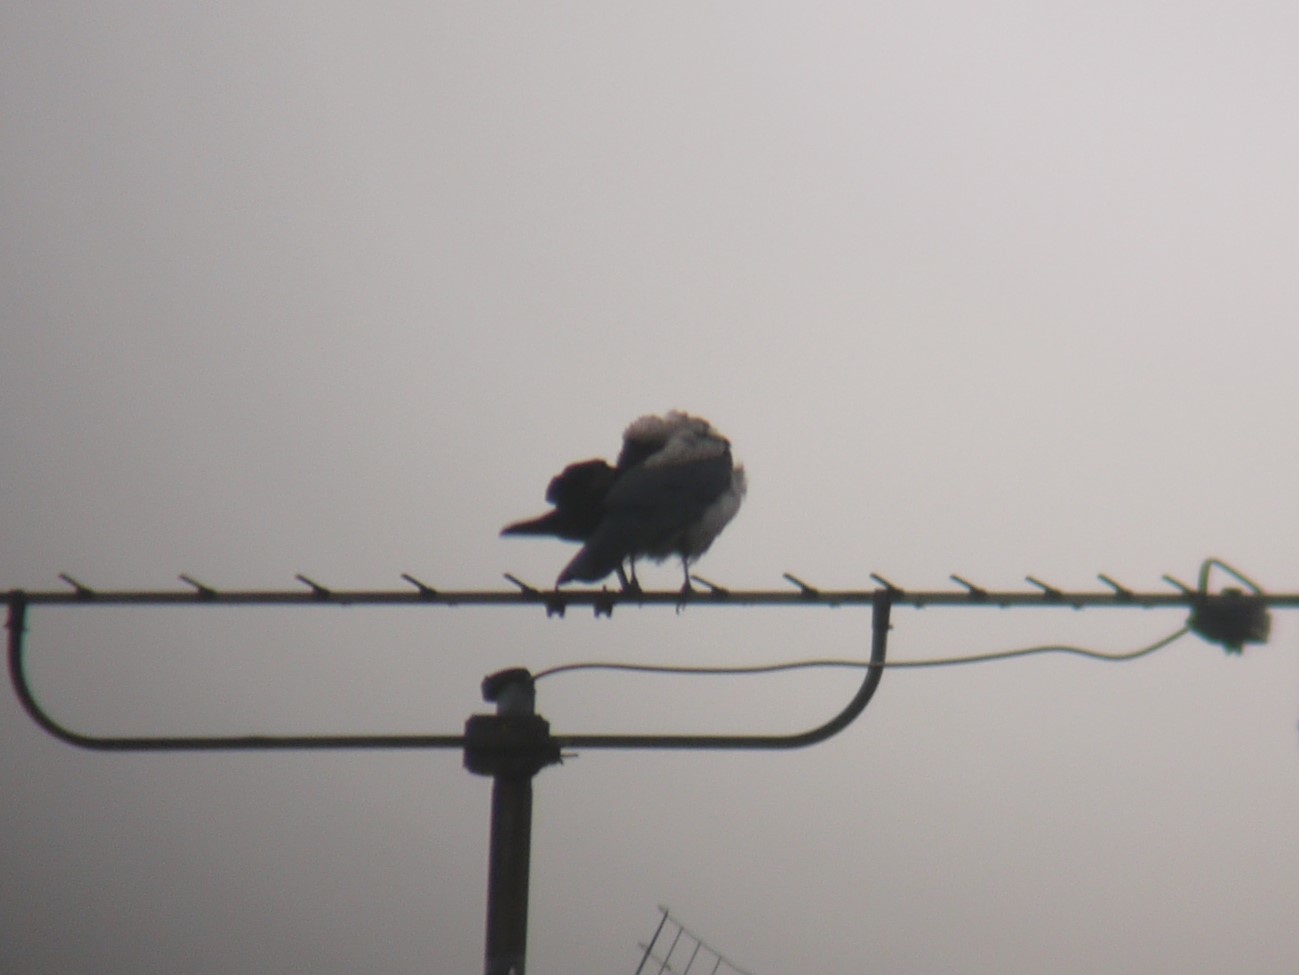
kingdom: Animalia
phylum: Chordata
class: Aves
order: Passeriformes
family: Corvidae
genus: Corvus
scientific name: Corvus cornix
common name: Hooded crow
